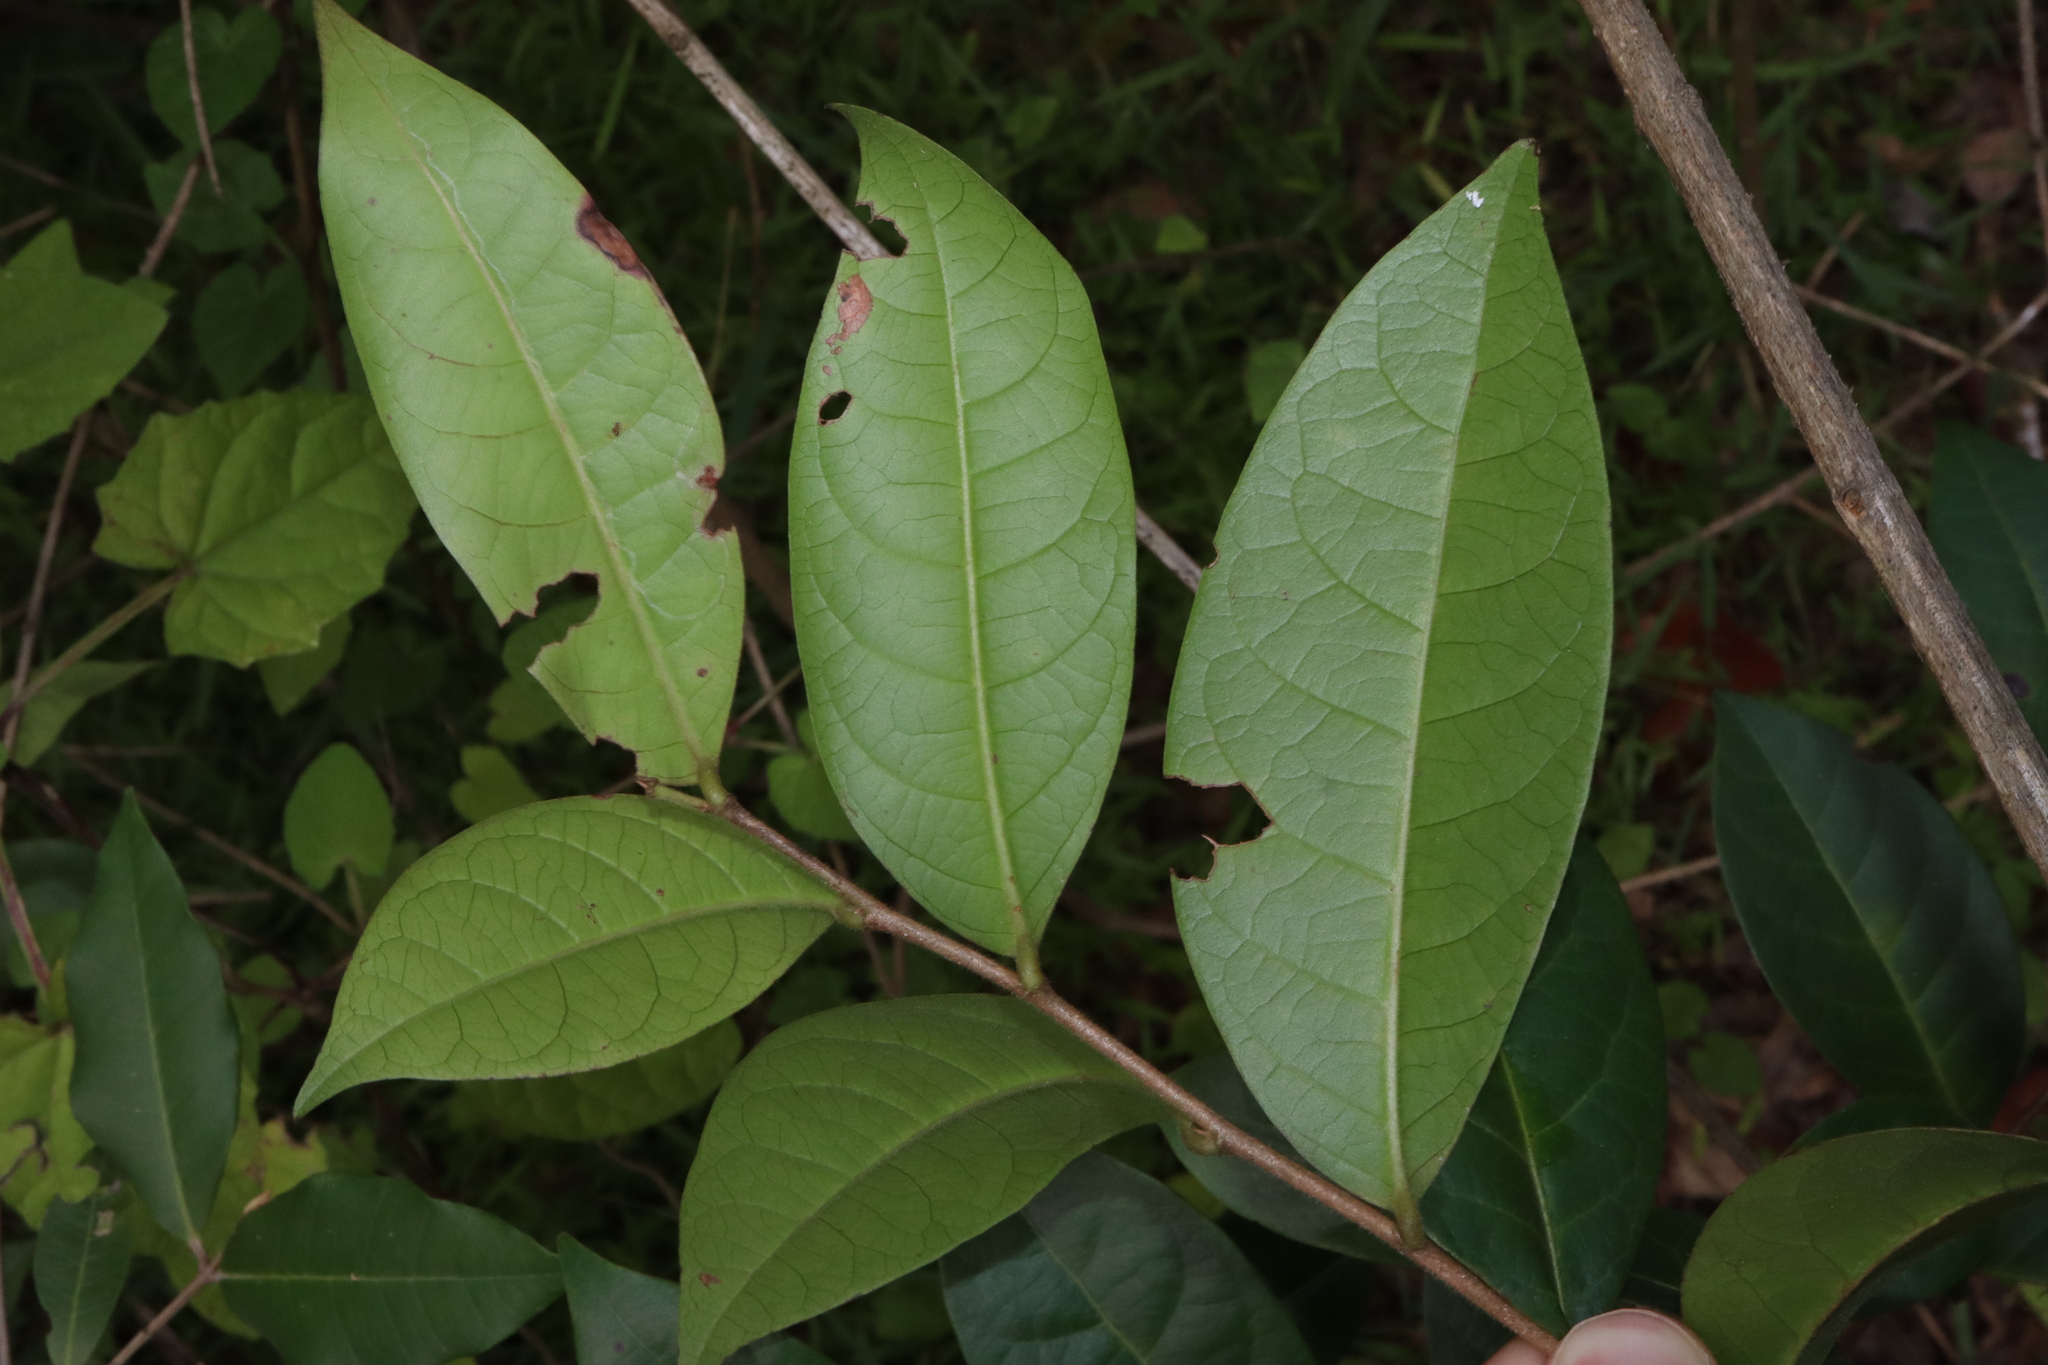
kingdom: Plantae
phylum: Tracheophyta
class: Magnoliopsida
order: Malpighiales
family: Phyllanthaceae
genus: Glochidion
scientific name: Glochidion ferdinandi
